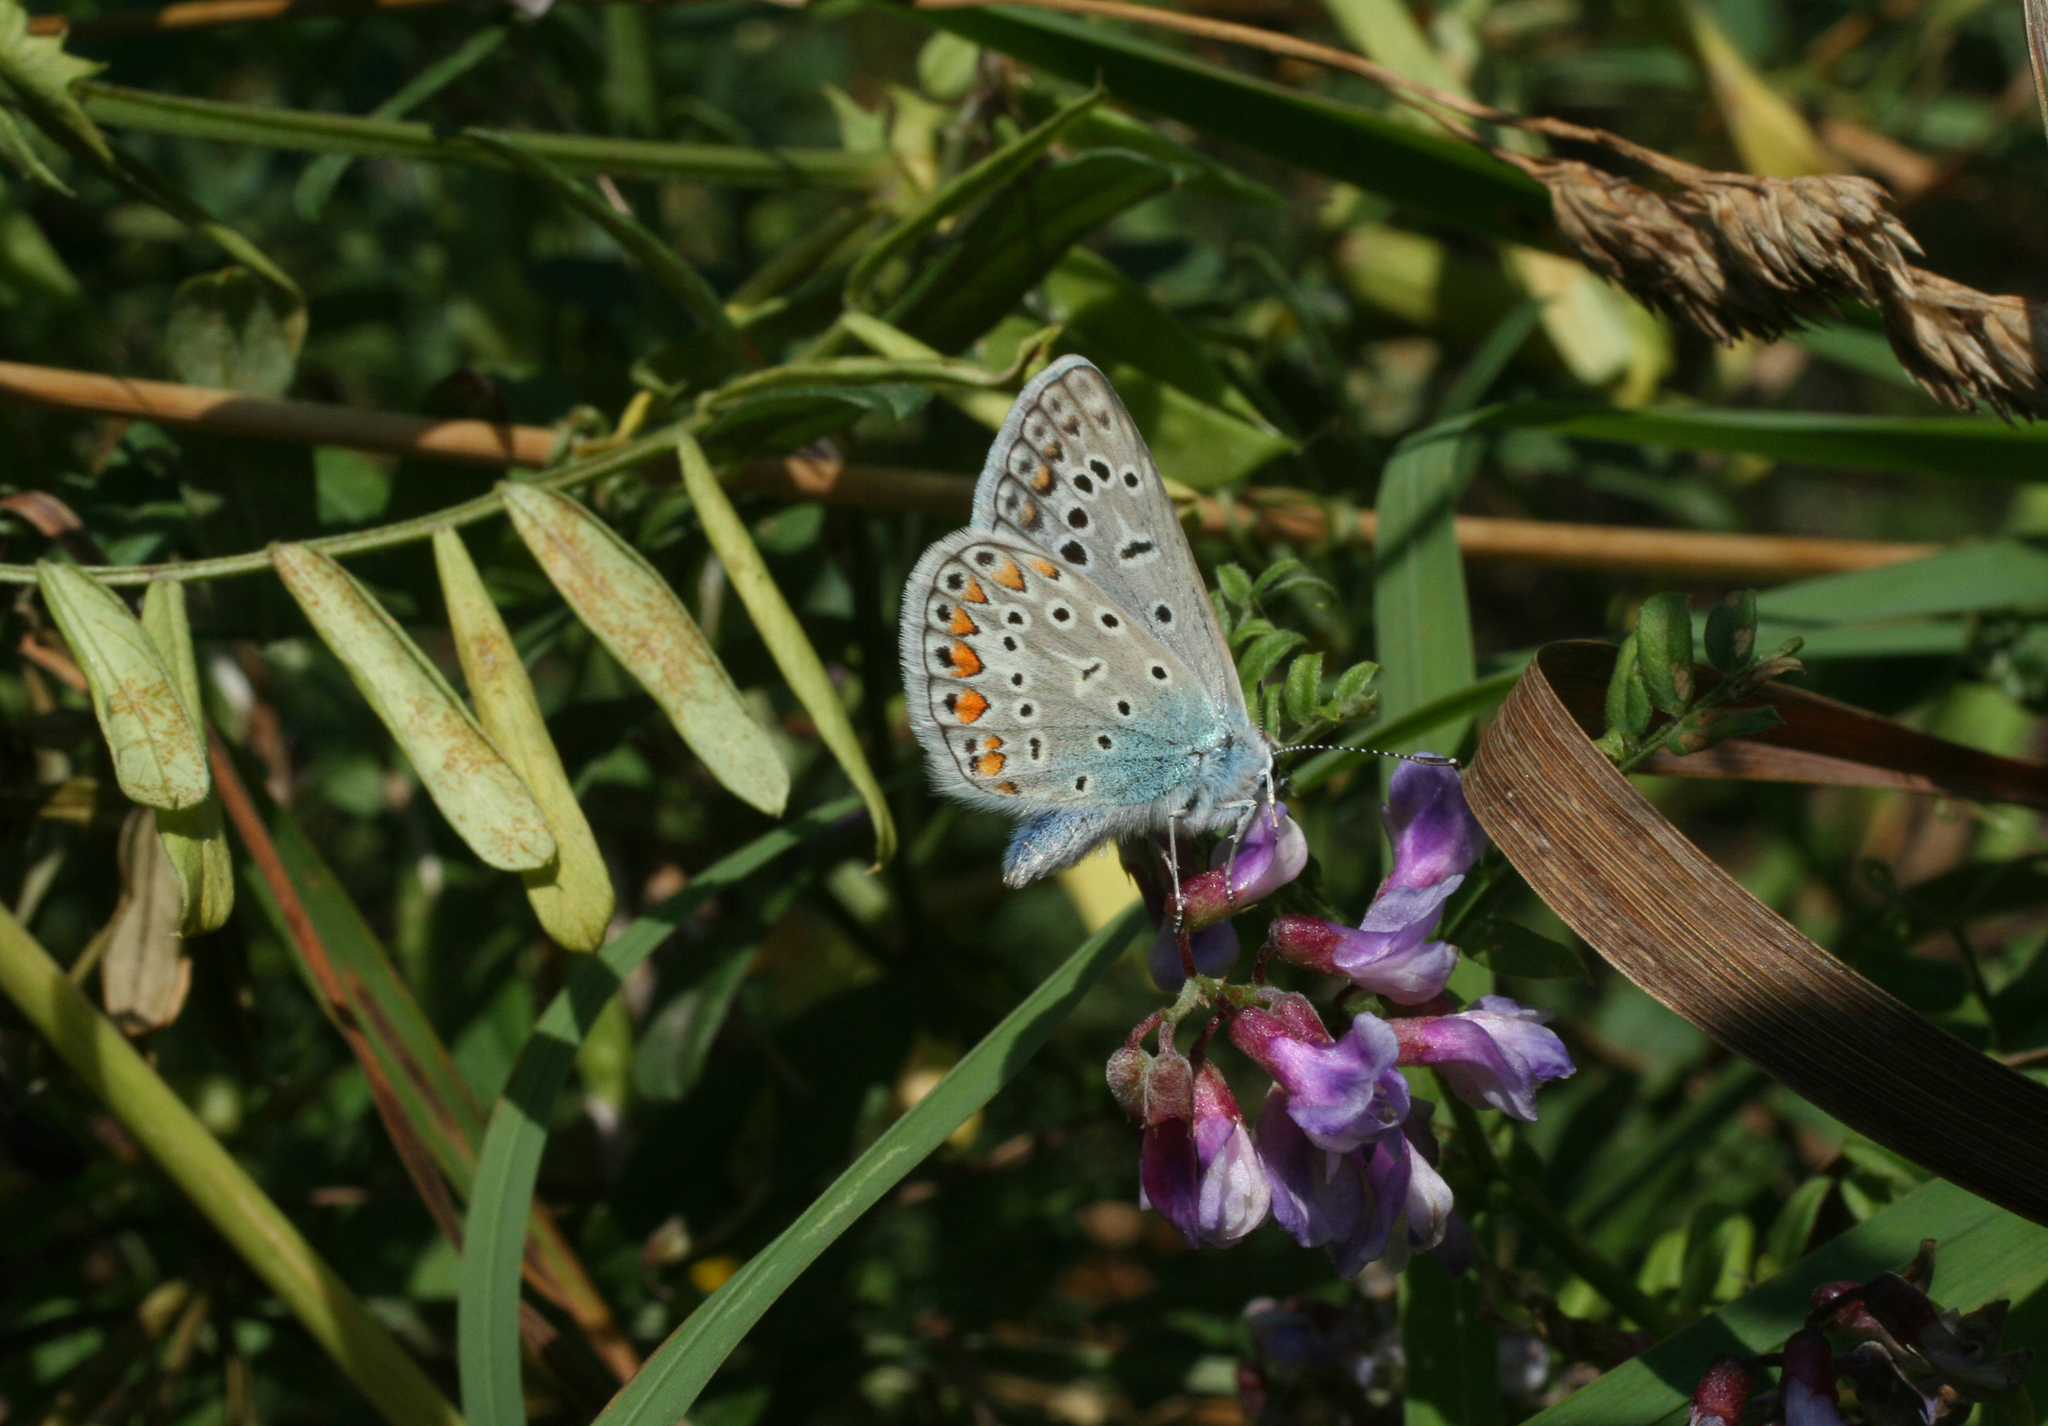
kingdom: Plantae
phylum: Tracheophyta
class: Magnoliopsida
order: Fabales
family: Fabaceae
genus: Vicia
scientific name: Vicia amoena
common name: Cheder ebs
